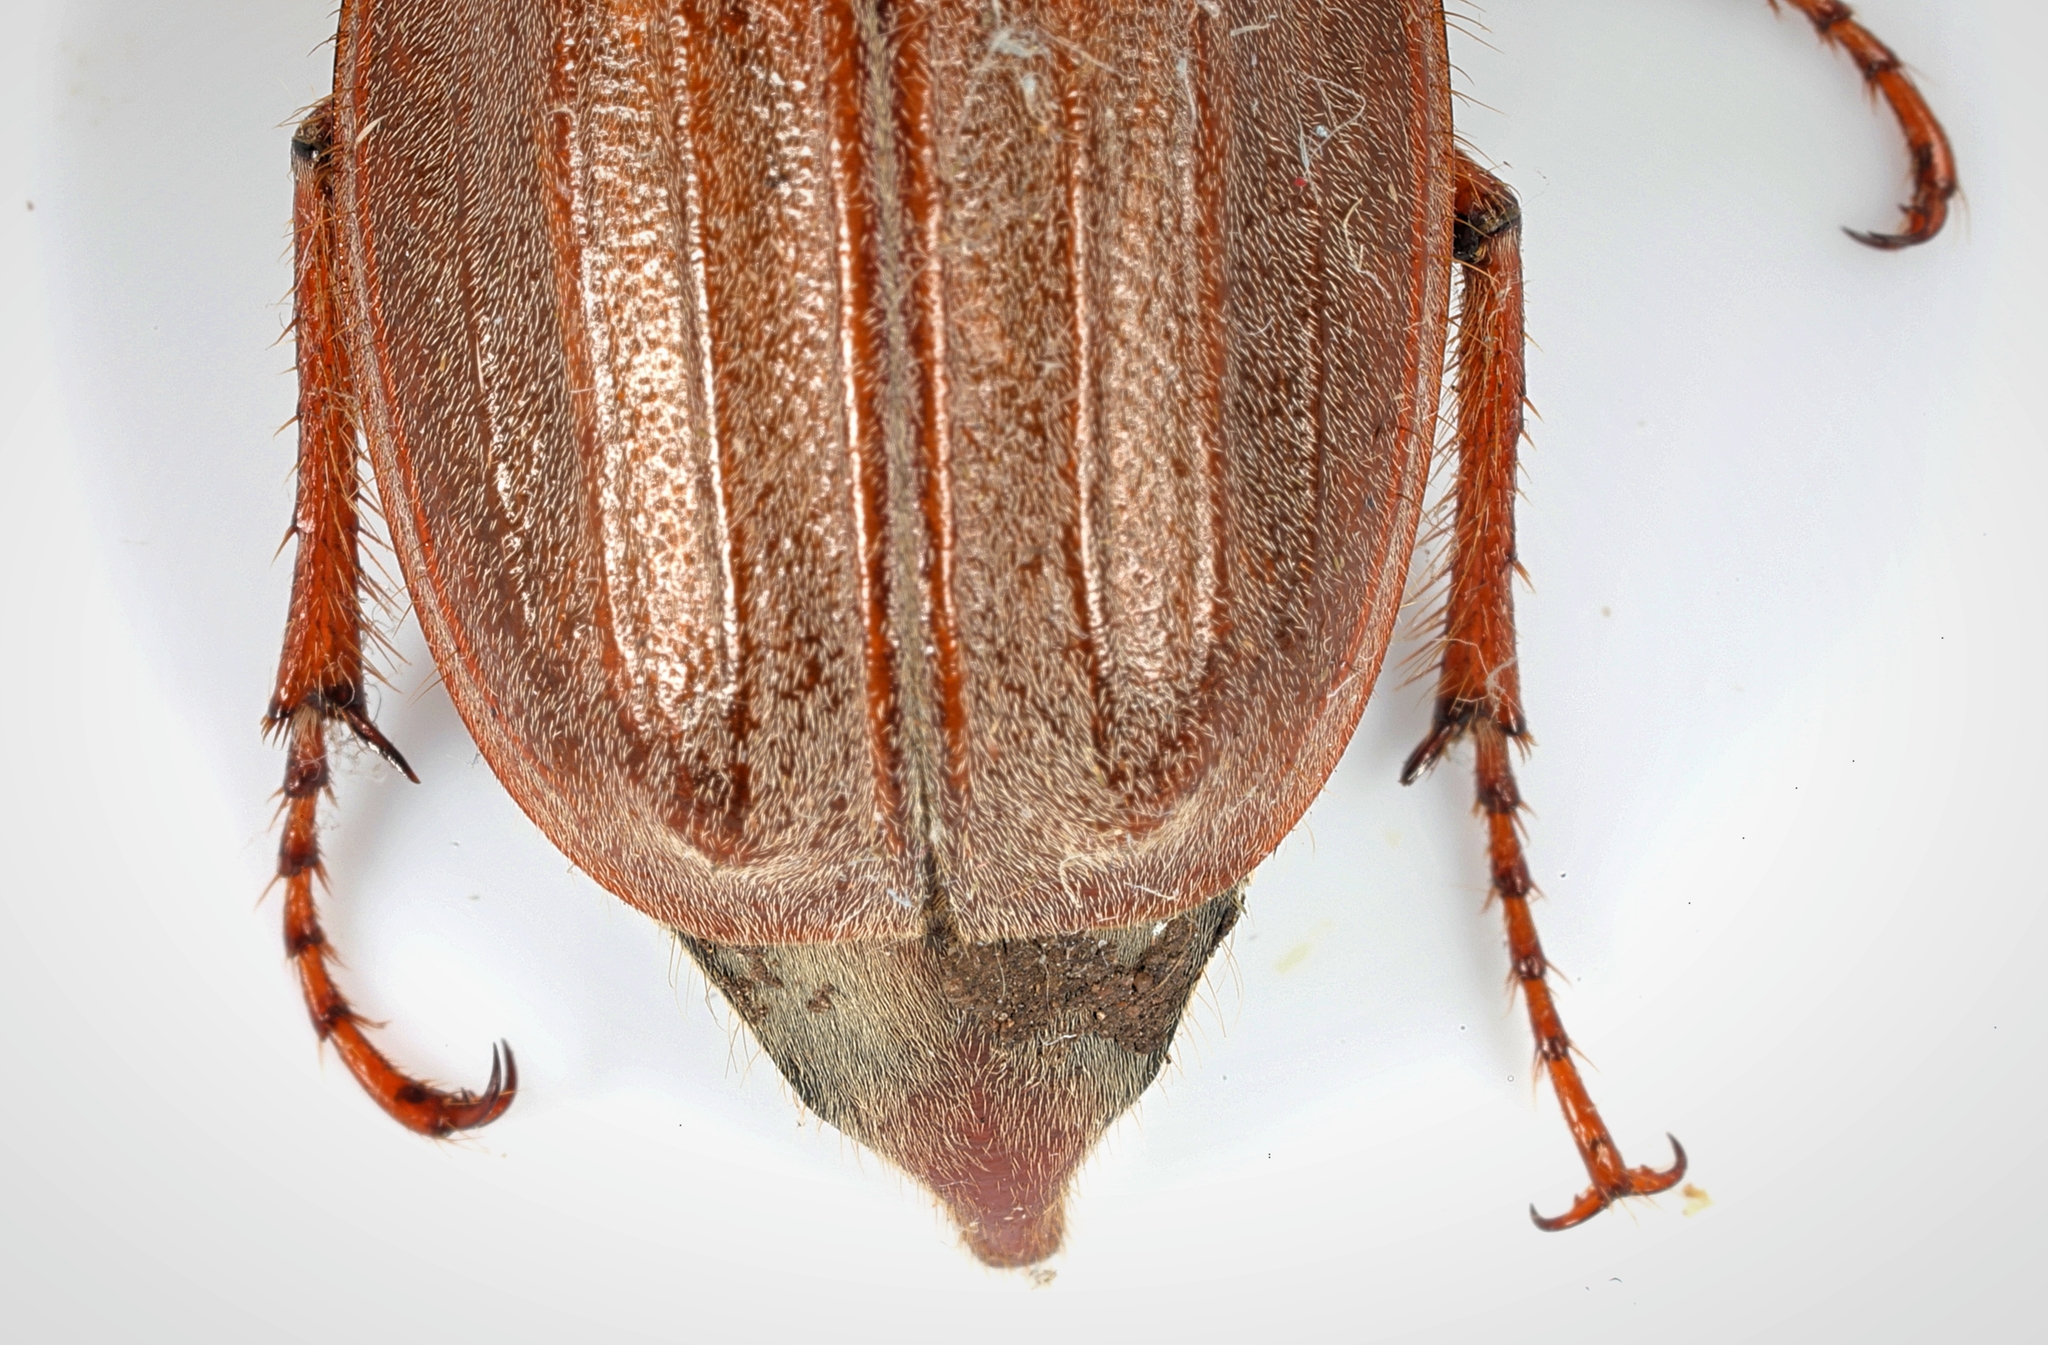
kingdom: Animalia
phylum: Arthropoda
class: Insecta
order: Coleoptera
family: Scarabaeidae
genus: Melolontha
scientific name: Melolontha melolontha
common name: Cockchafer maybeetle
